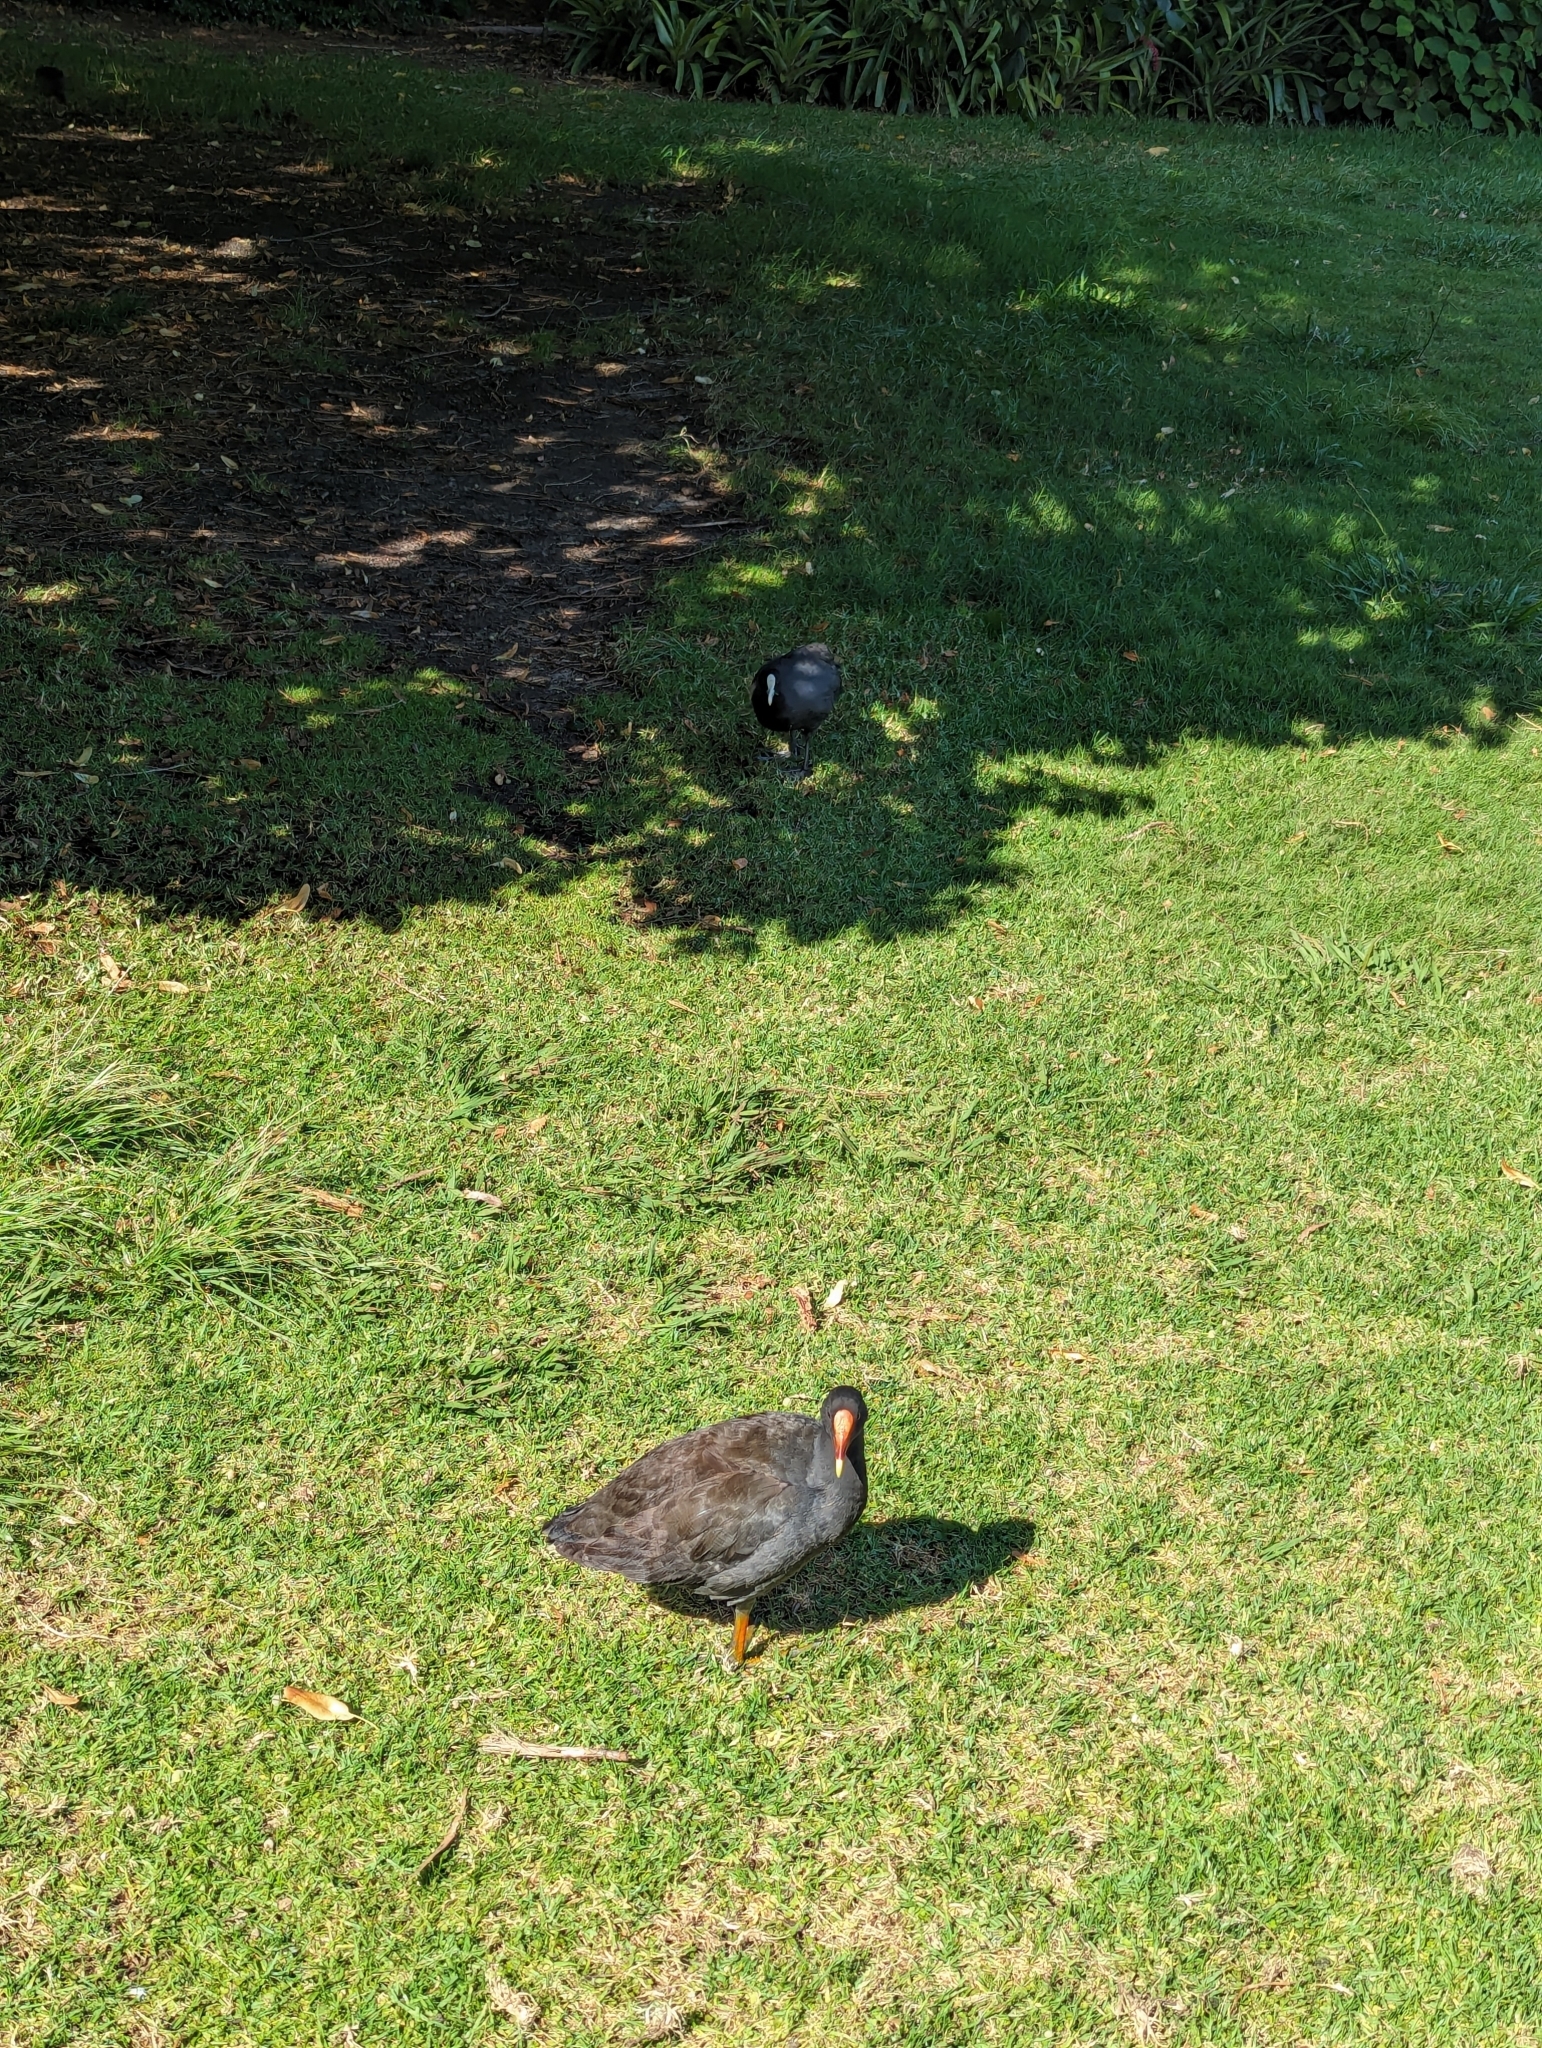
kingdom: Animalia
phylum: Chordata
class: Aves
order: Gruiformes
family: Rallidae
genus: Fulica
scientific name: Fulica atra
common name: Eurasian coot
